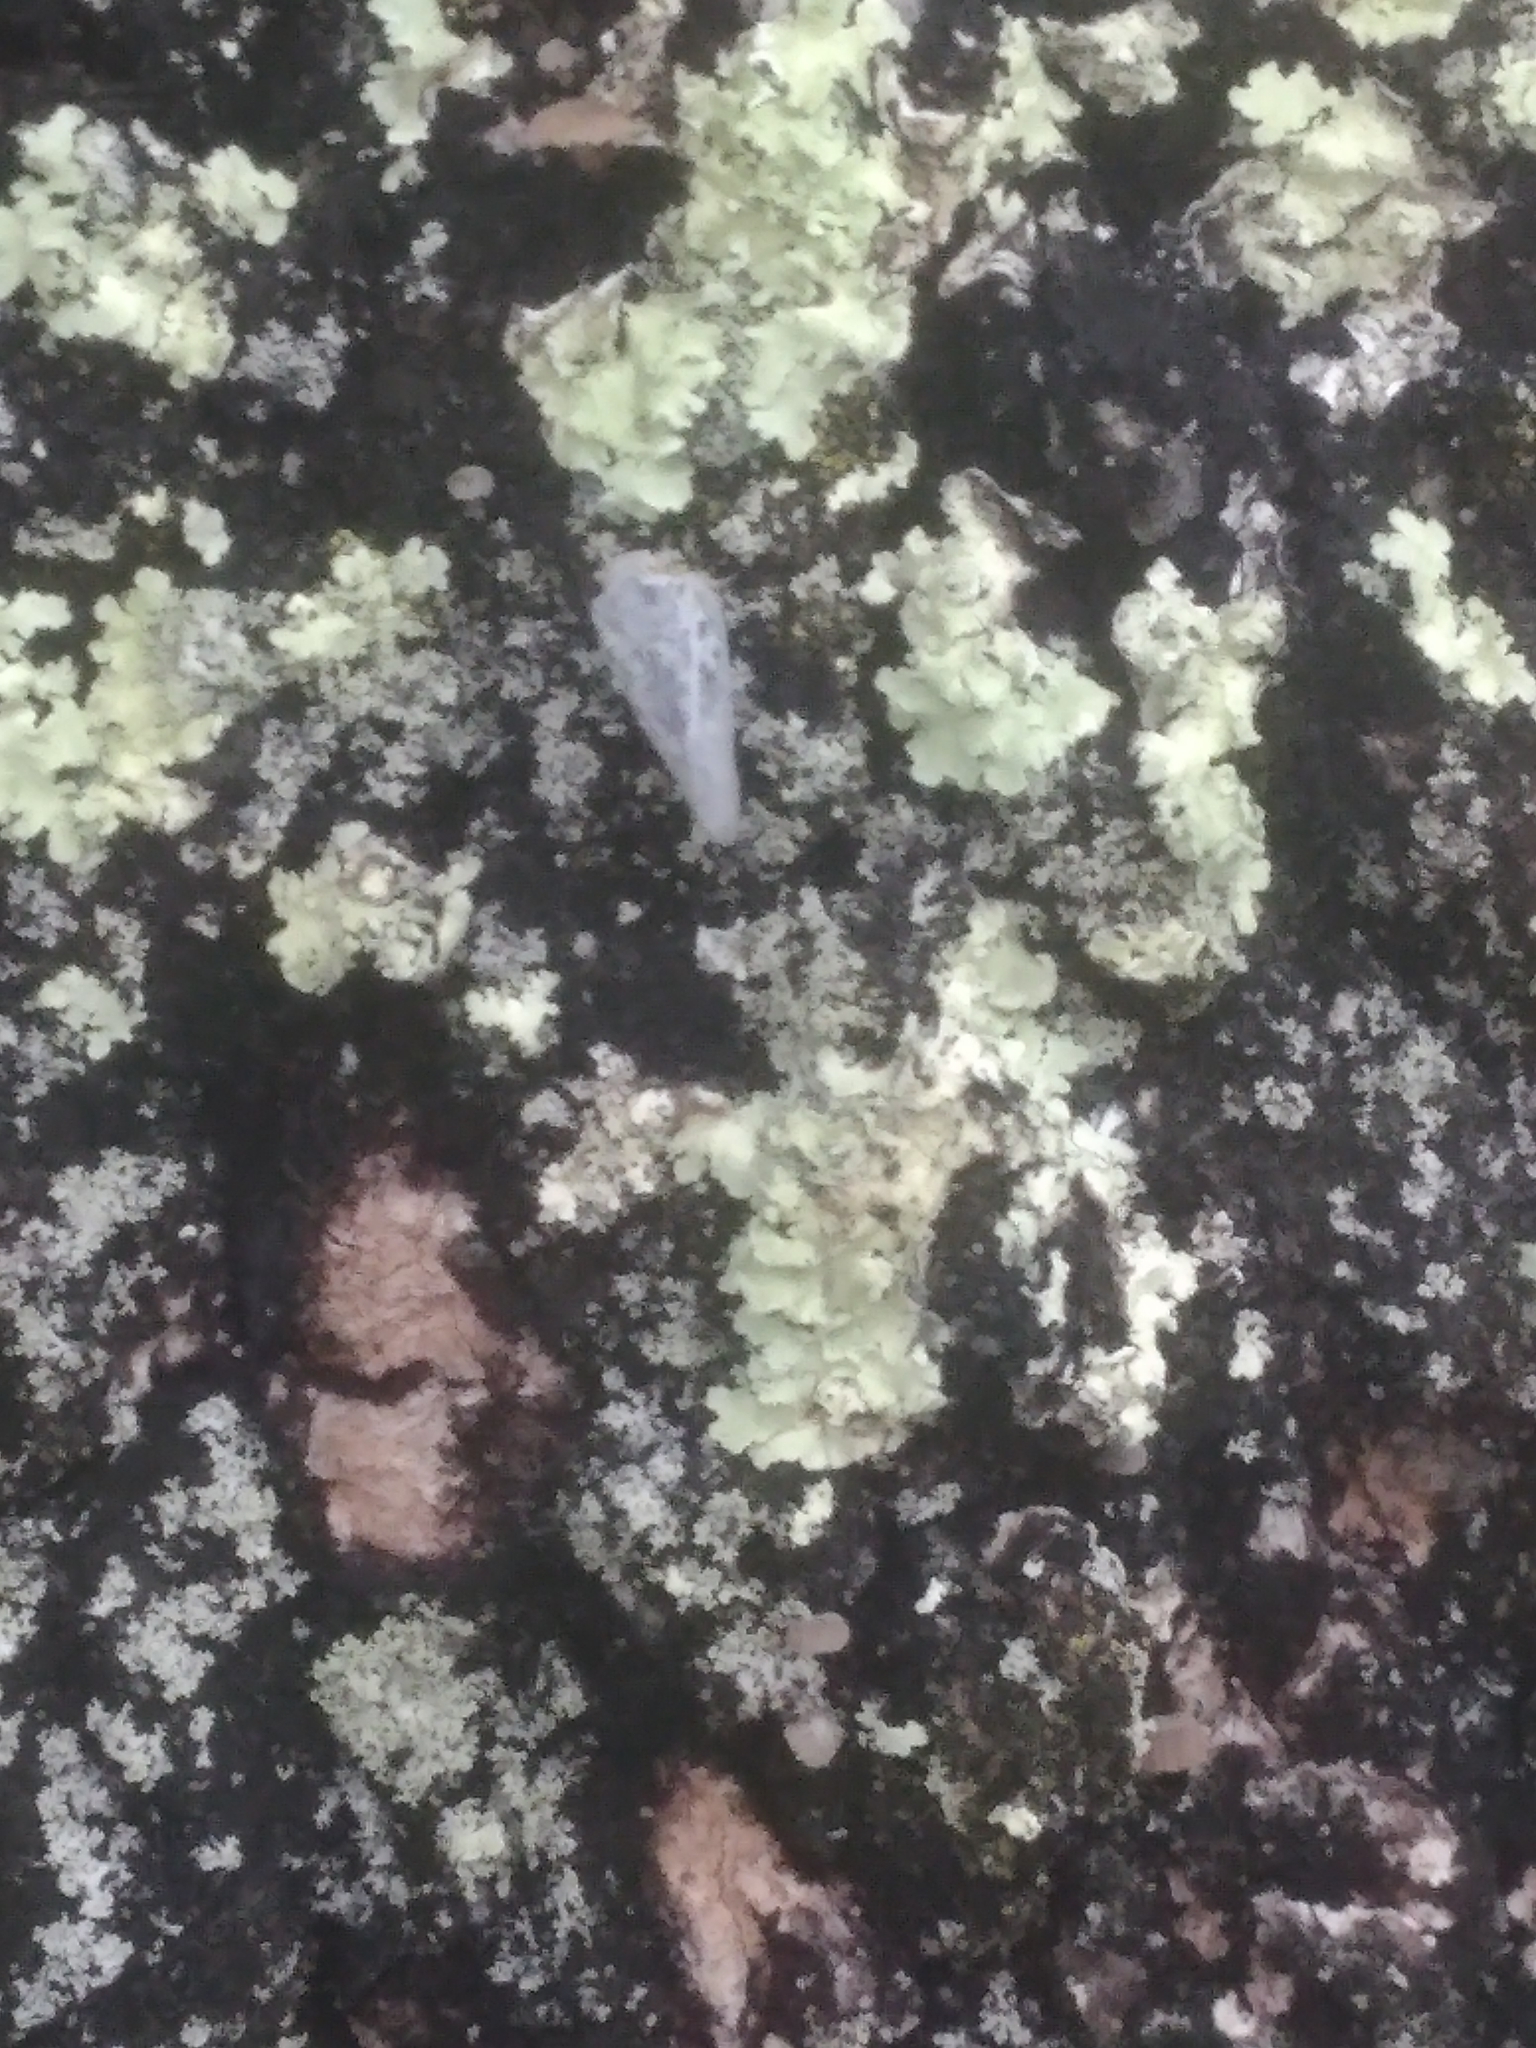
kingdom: Animalia
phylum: Arthropoda
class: Insecta
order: Hemiptera
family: Flatidae
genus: Metcalfa
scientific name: Metcalfa pruinosa
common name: Citrus flatid planthopper
